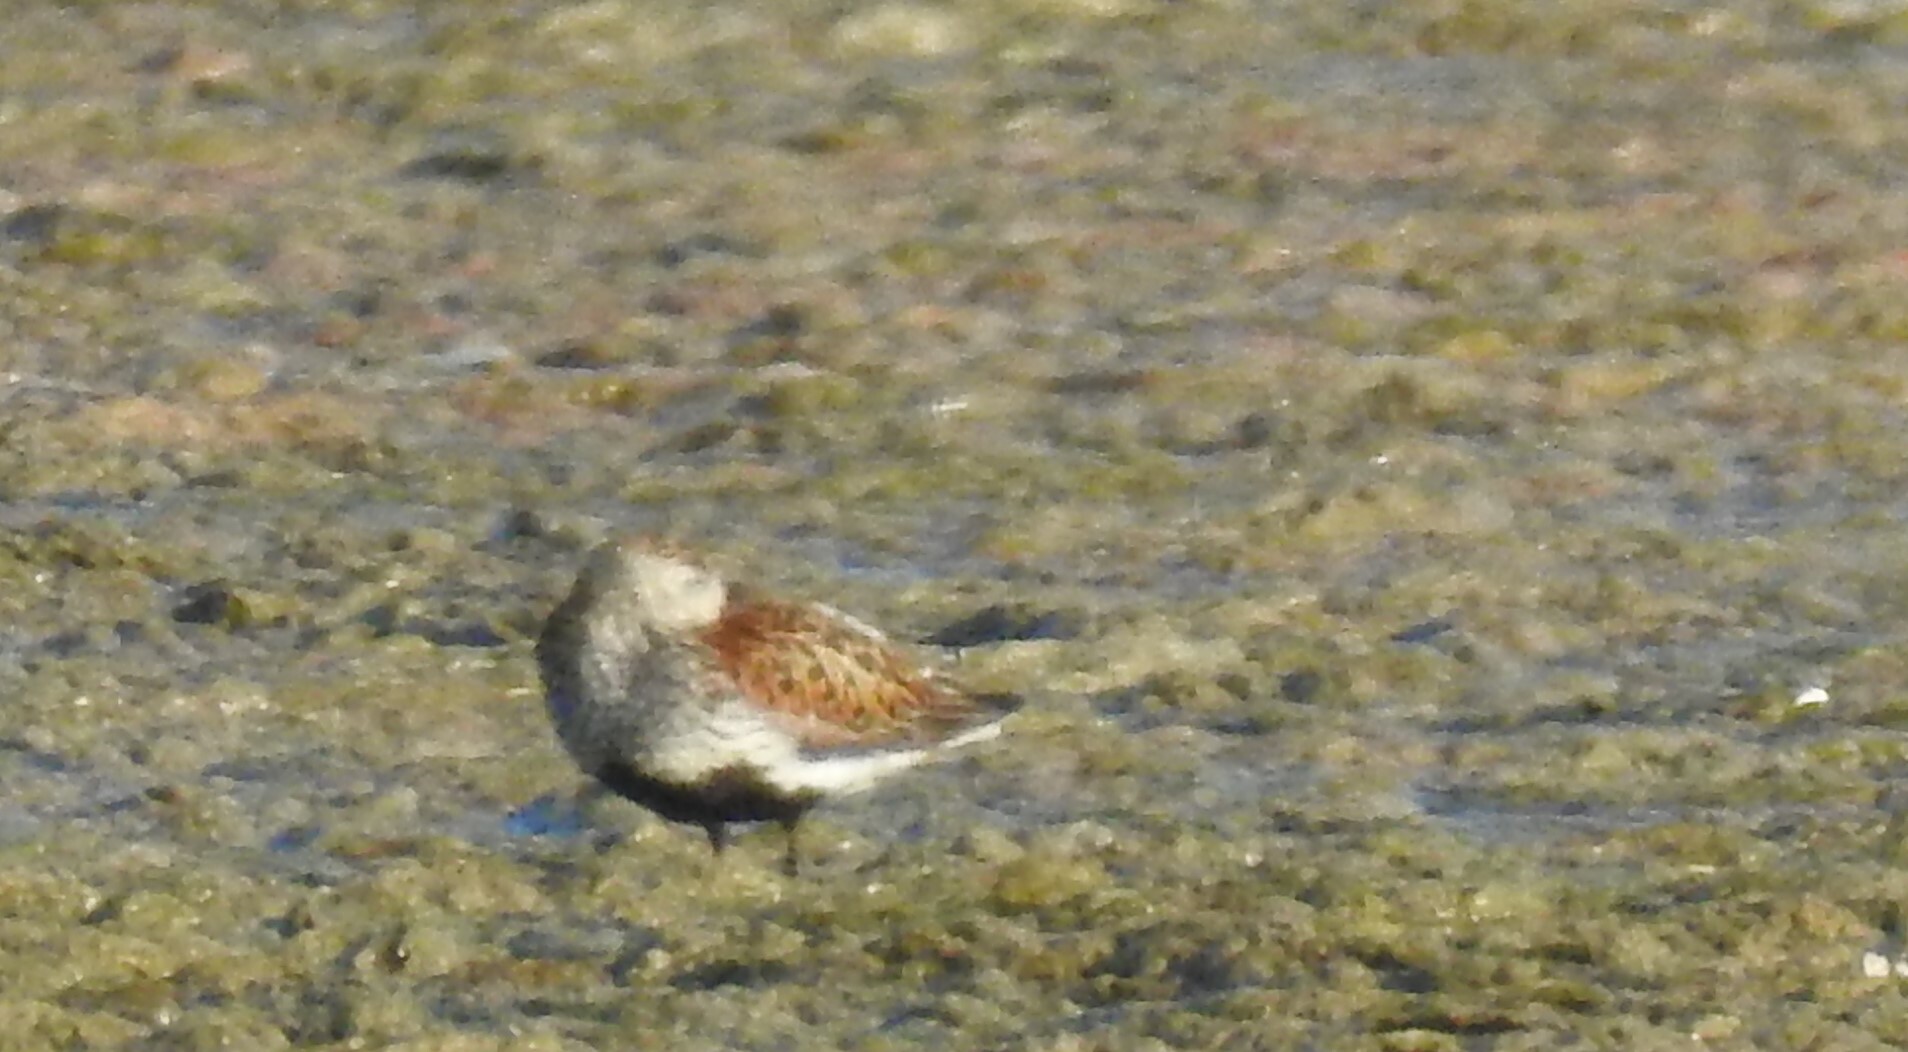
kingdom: Animalia
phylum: Chordata
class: Aves
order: Charadriiformes
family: Scolopacidae
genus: Calidris
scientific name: Calidris alpina
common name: Dunlin
